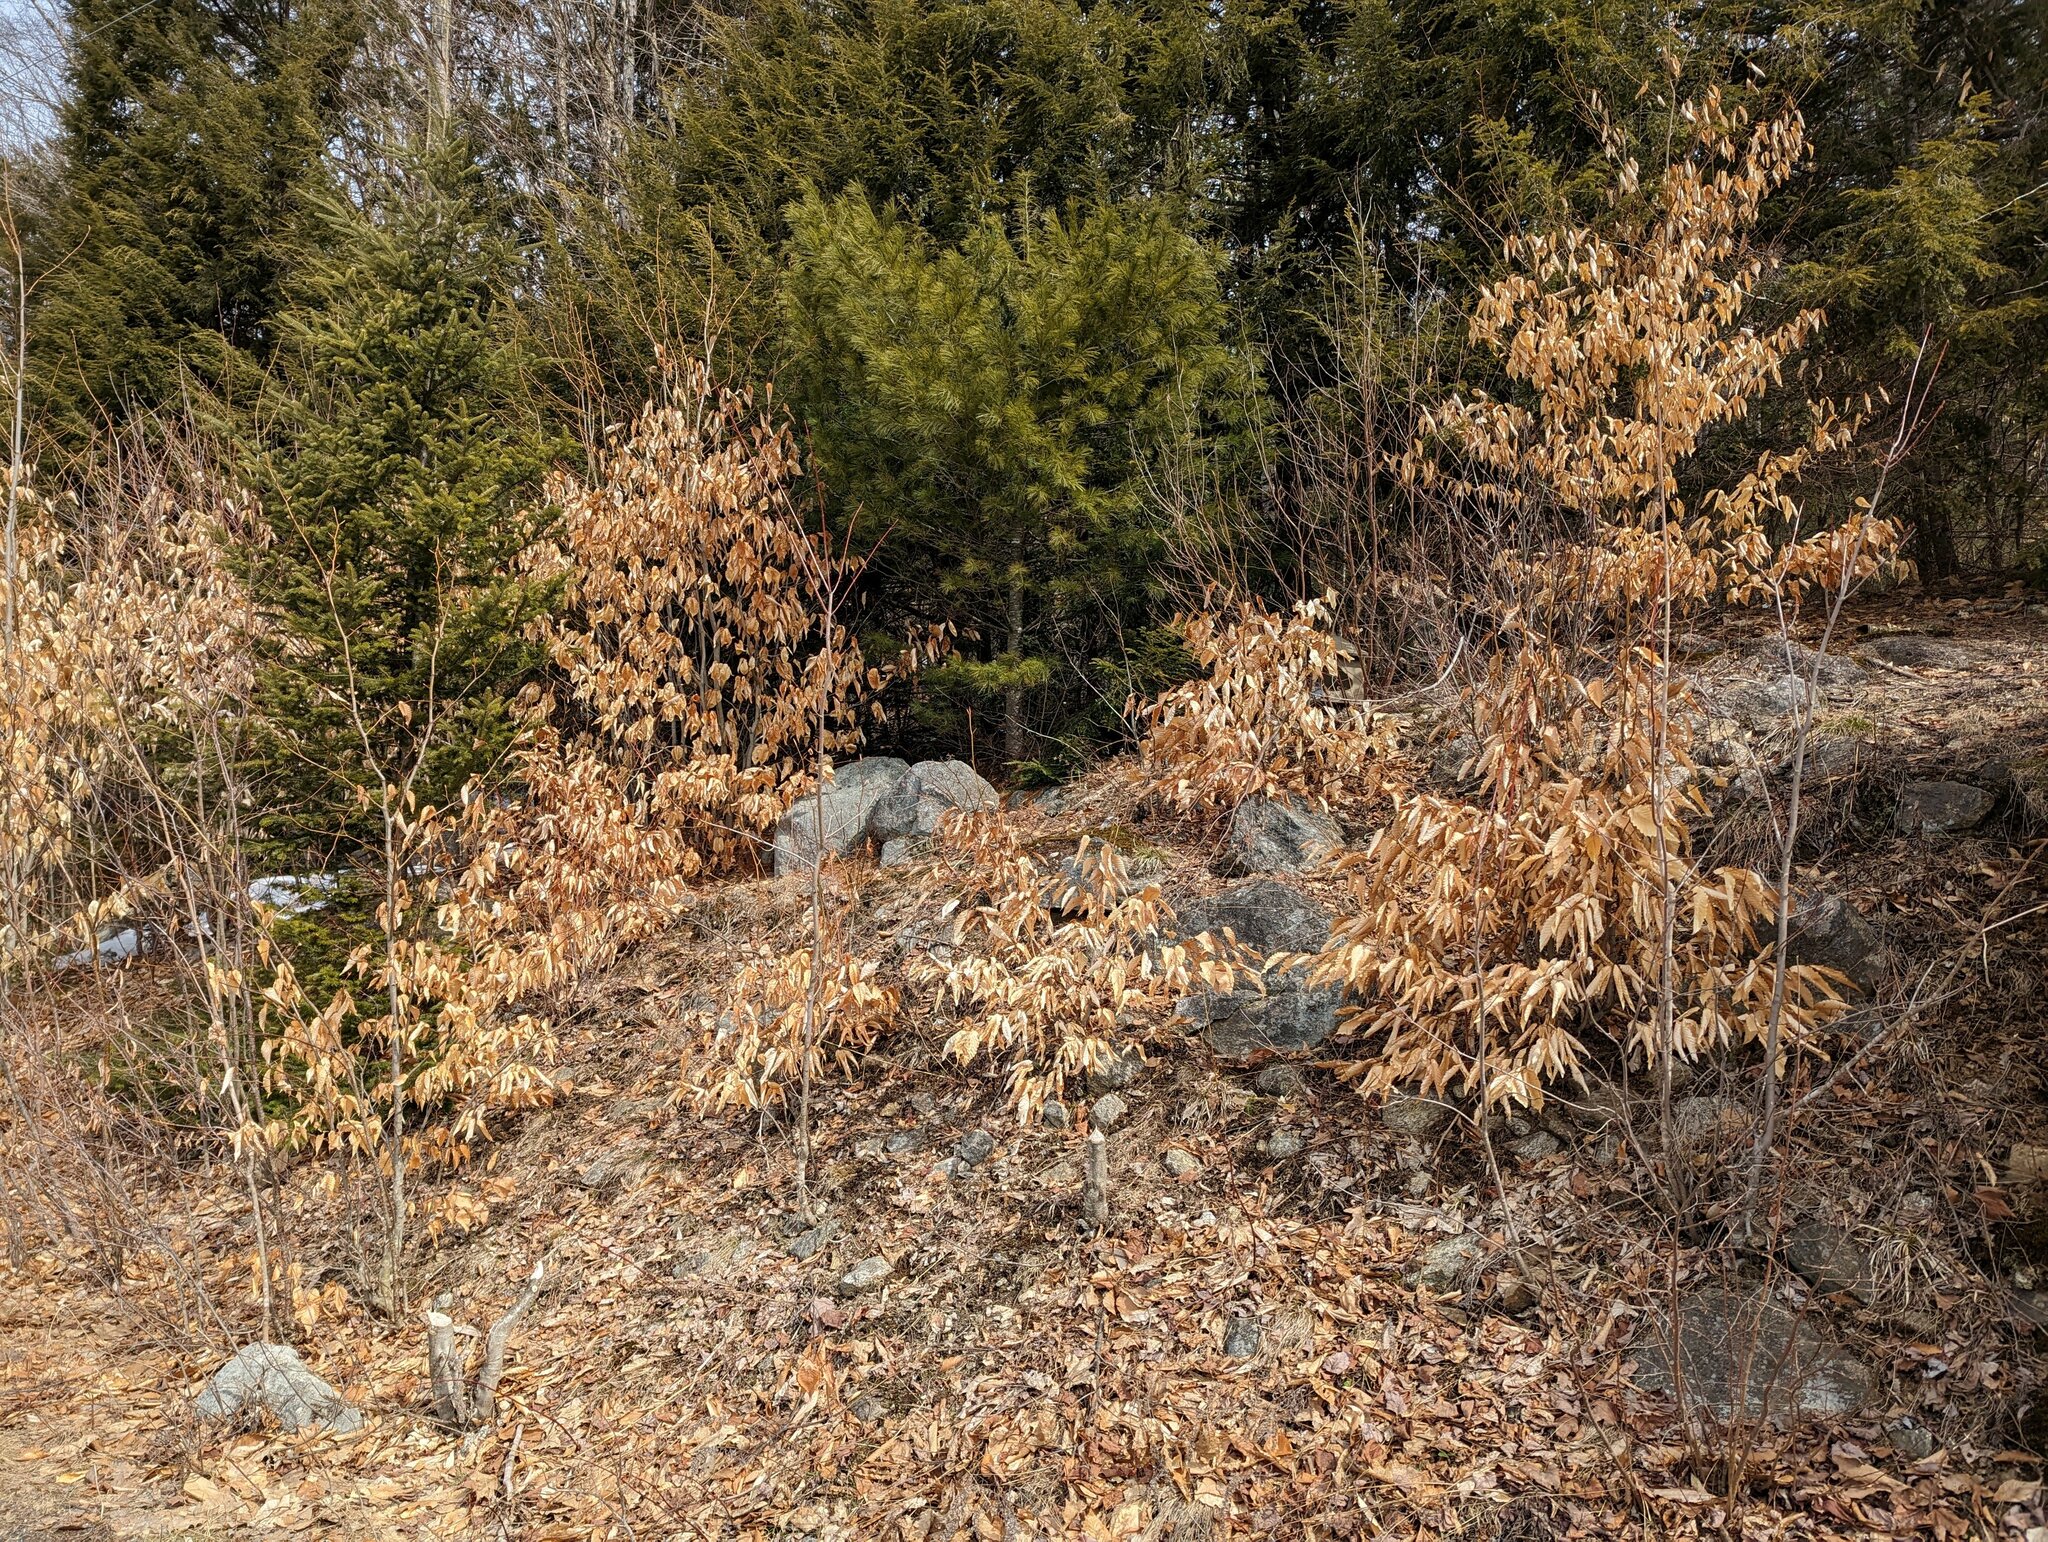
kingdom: Plantae
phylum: Tracheophyta
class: Magnoliopsida
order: Fagales
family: Fagaceae
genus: Fagus
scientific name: Fagus grandifolia
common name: American beech
